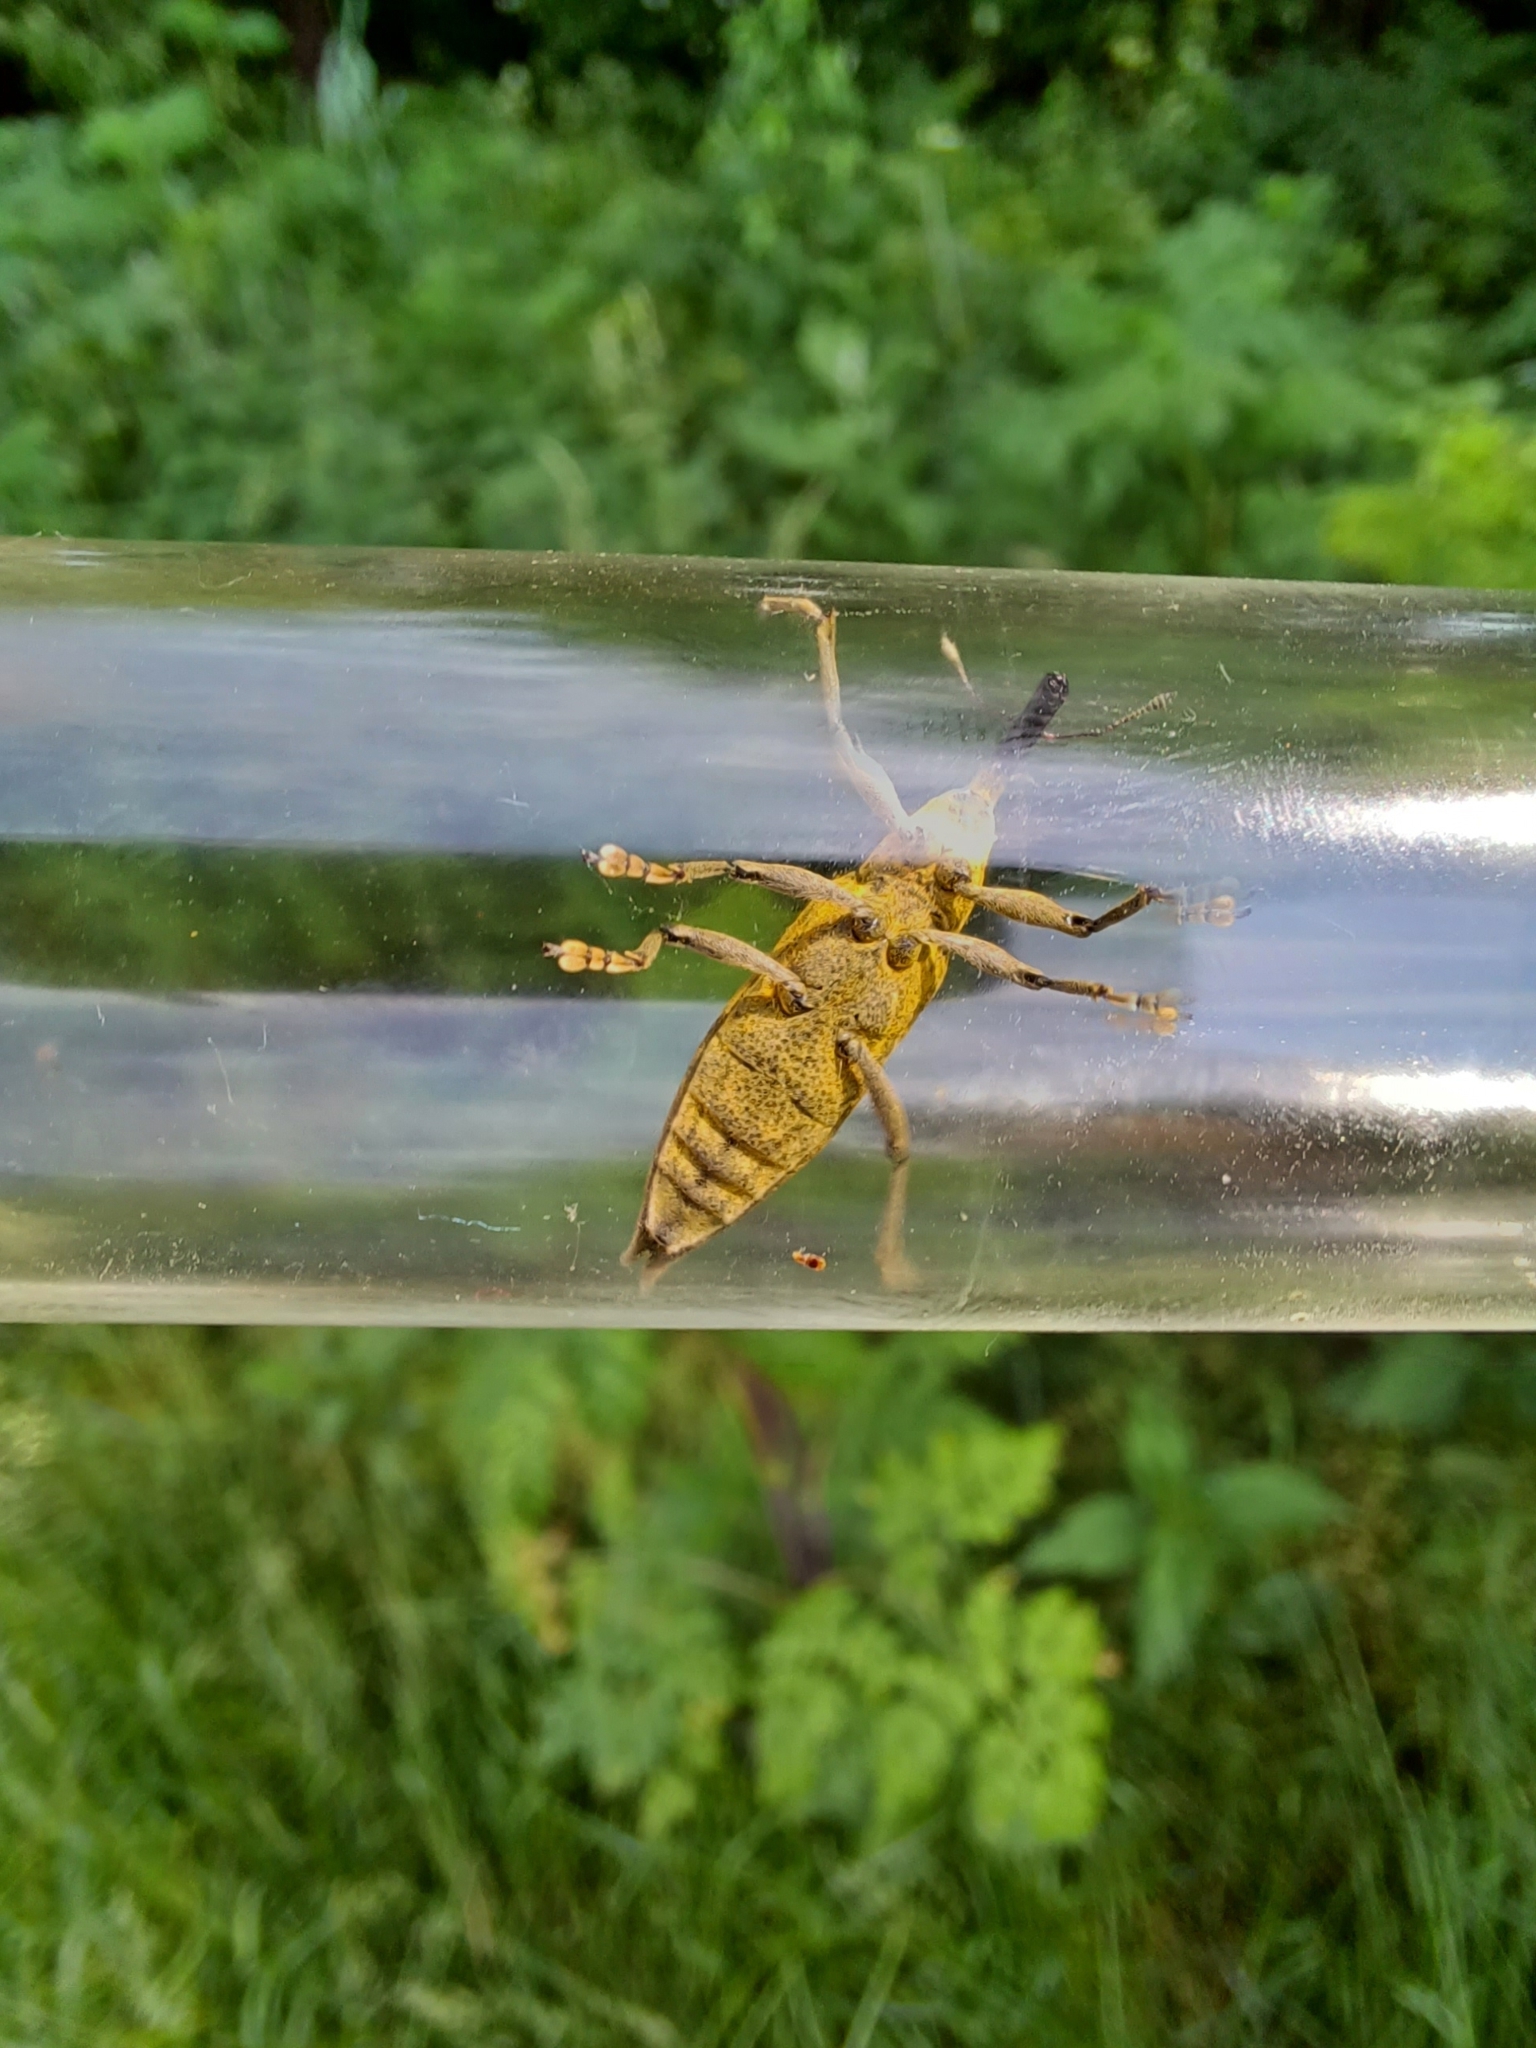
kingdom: Animalia
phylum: Arthropoda
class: Insecta
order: Coleoptera
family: Curculionidae
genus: Lixus
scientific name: Lixus iridis
